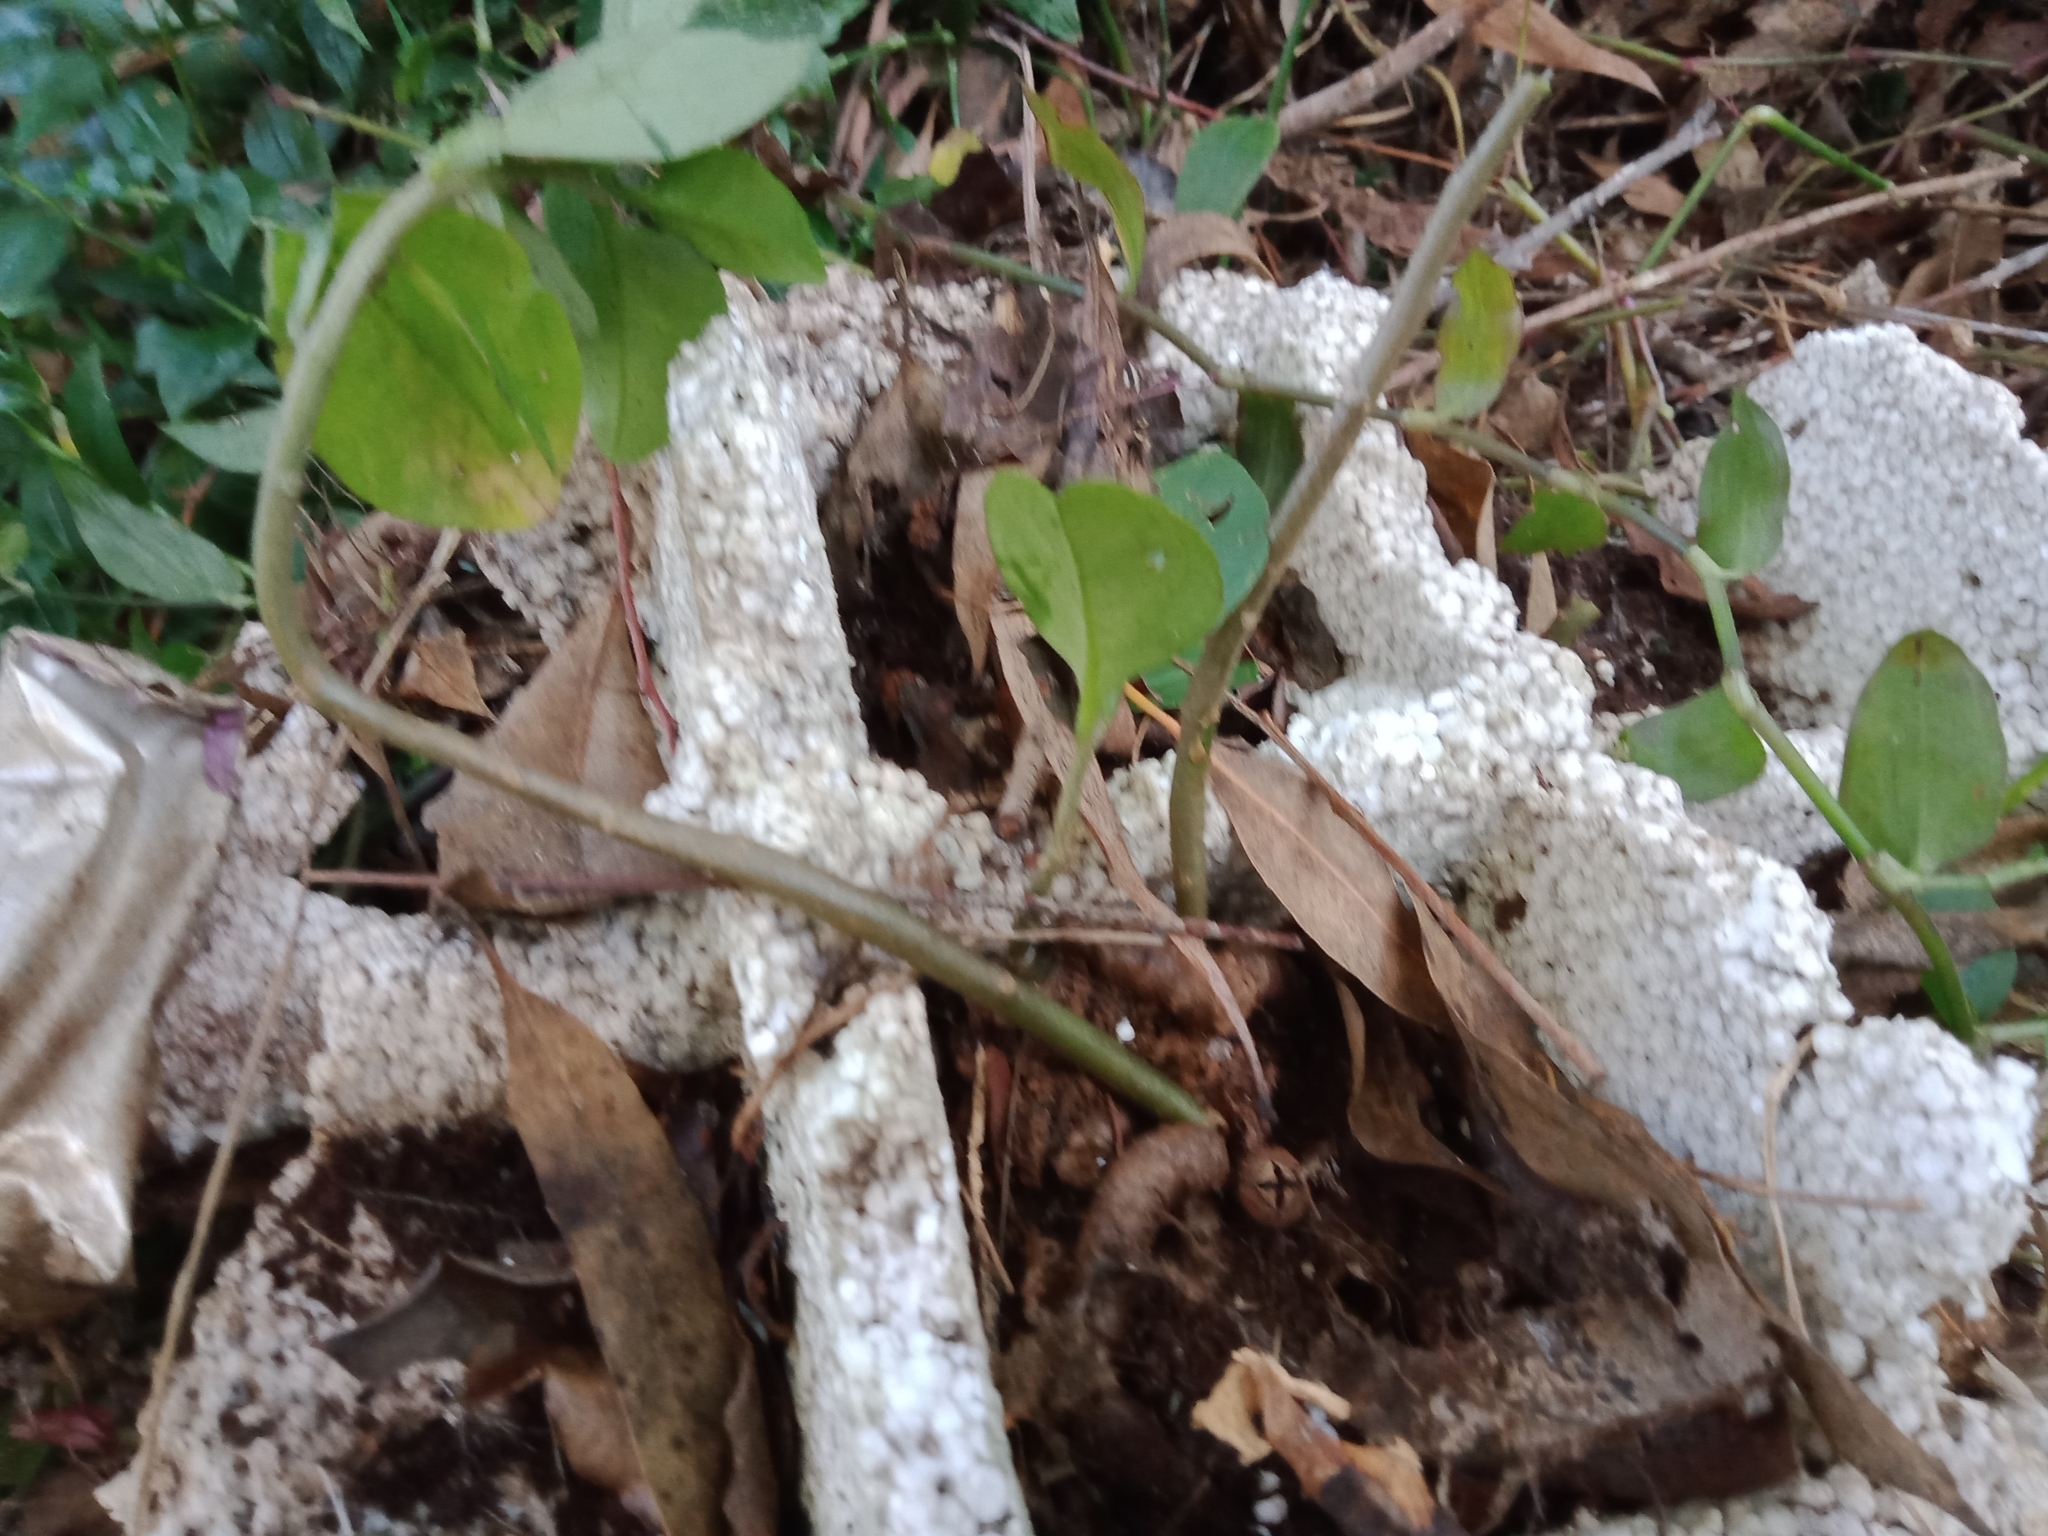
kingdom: Plantae
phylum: Tracheophyta
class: Magnoliopsida
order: Caryophyllales
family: Basellaceae
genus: Anredera
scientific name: Anredera cordifolia
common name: Heartleaf madeiravine
